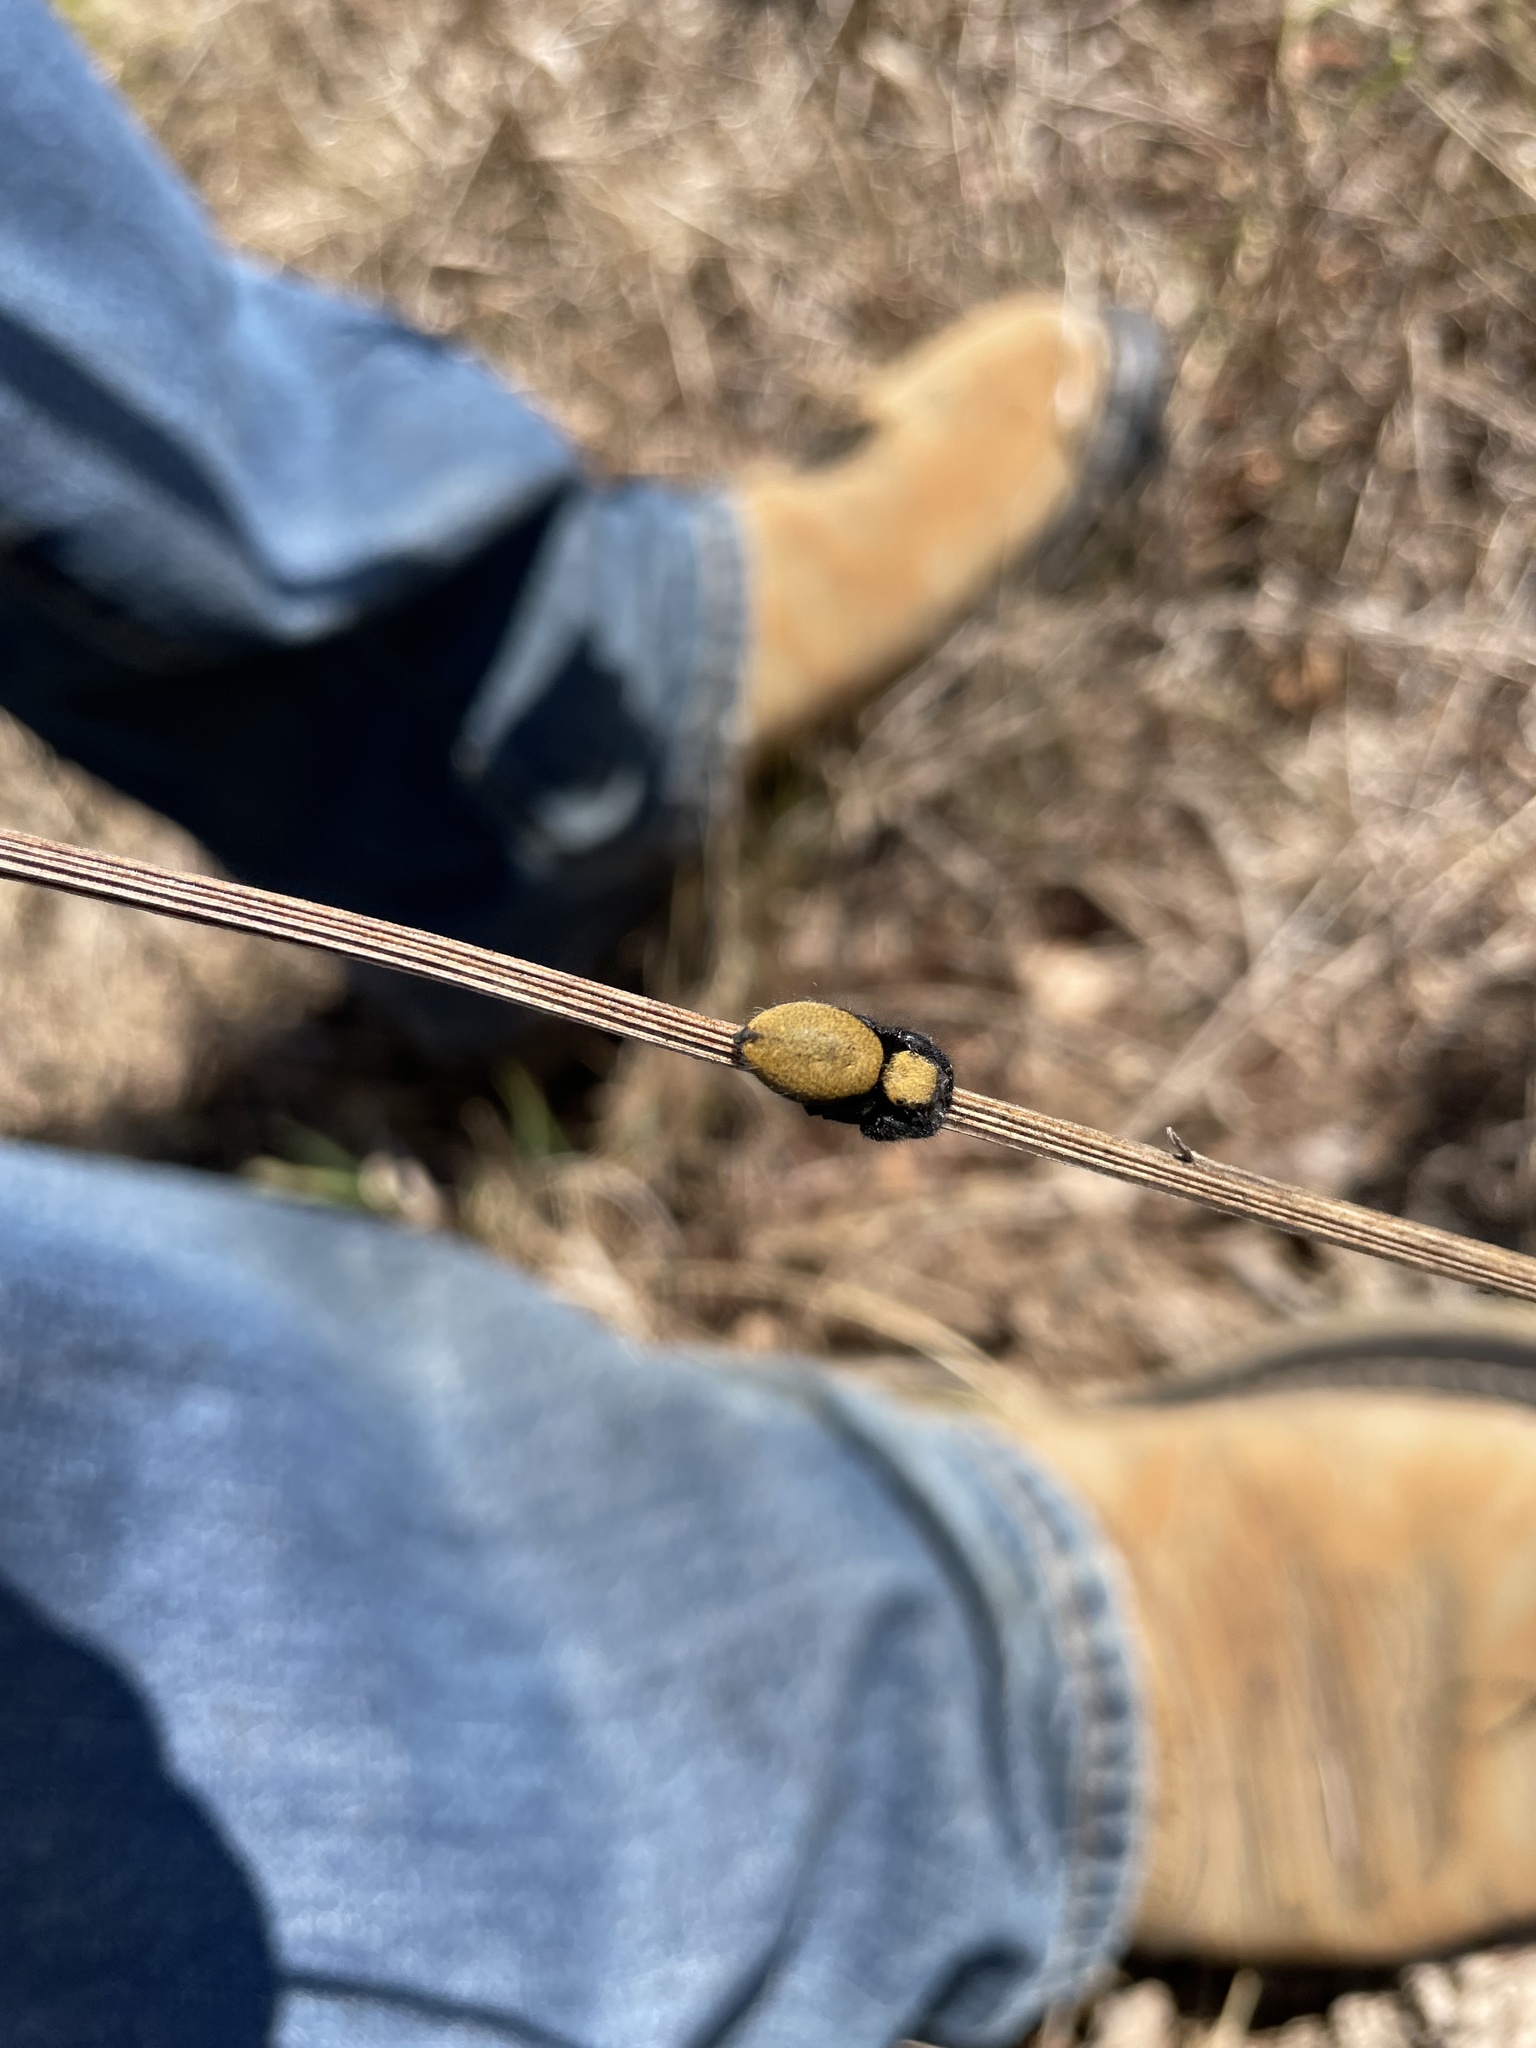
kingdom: Animalia
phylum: Arthropoda
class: Arachnida
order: Araneae
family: Salticidae
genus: Phidippus
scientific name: Phidippus apacheanus
